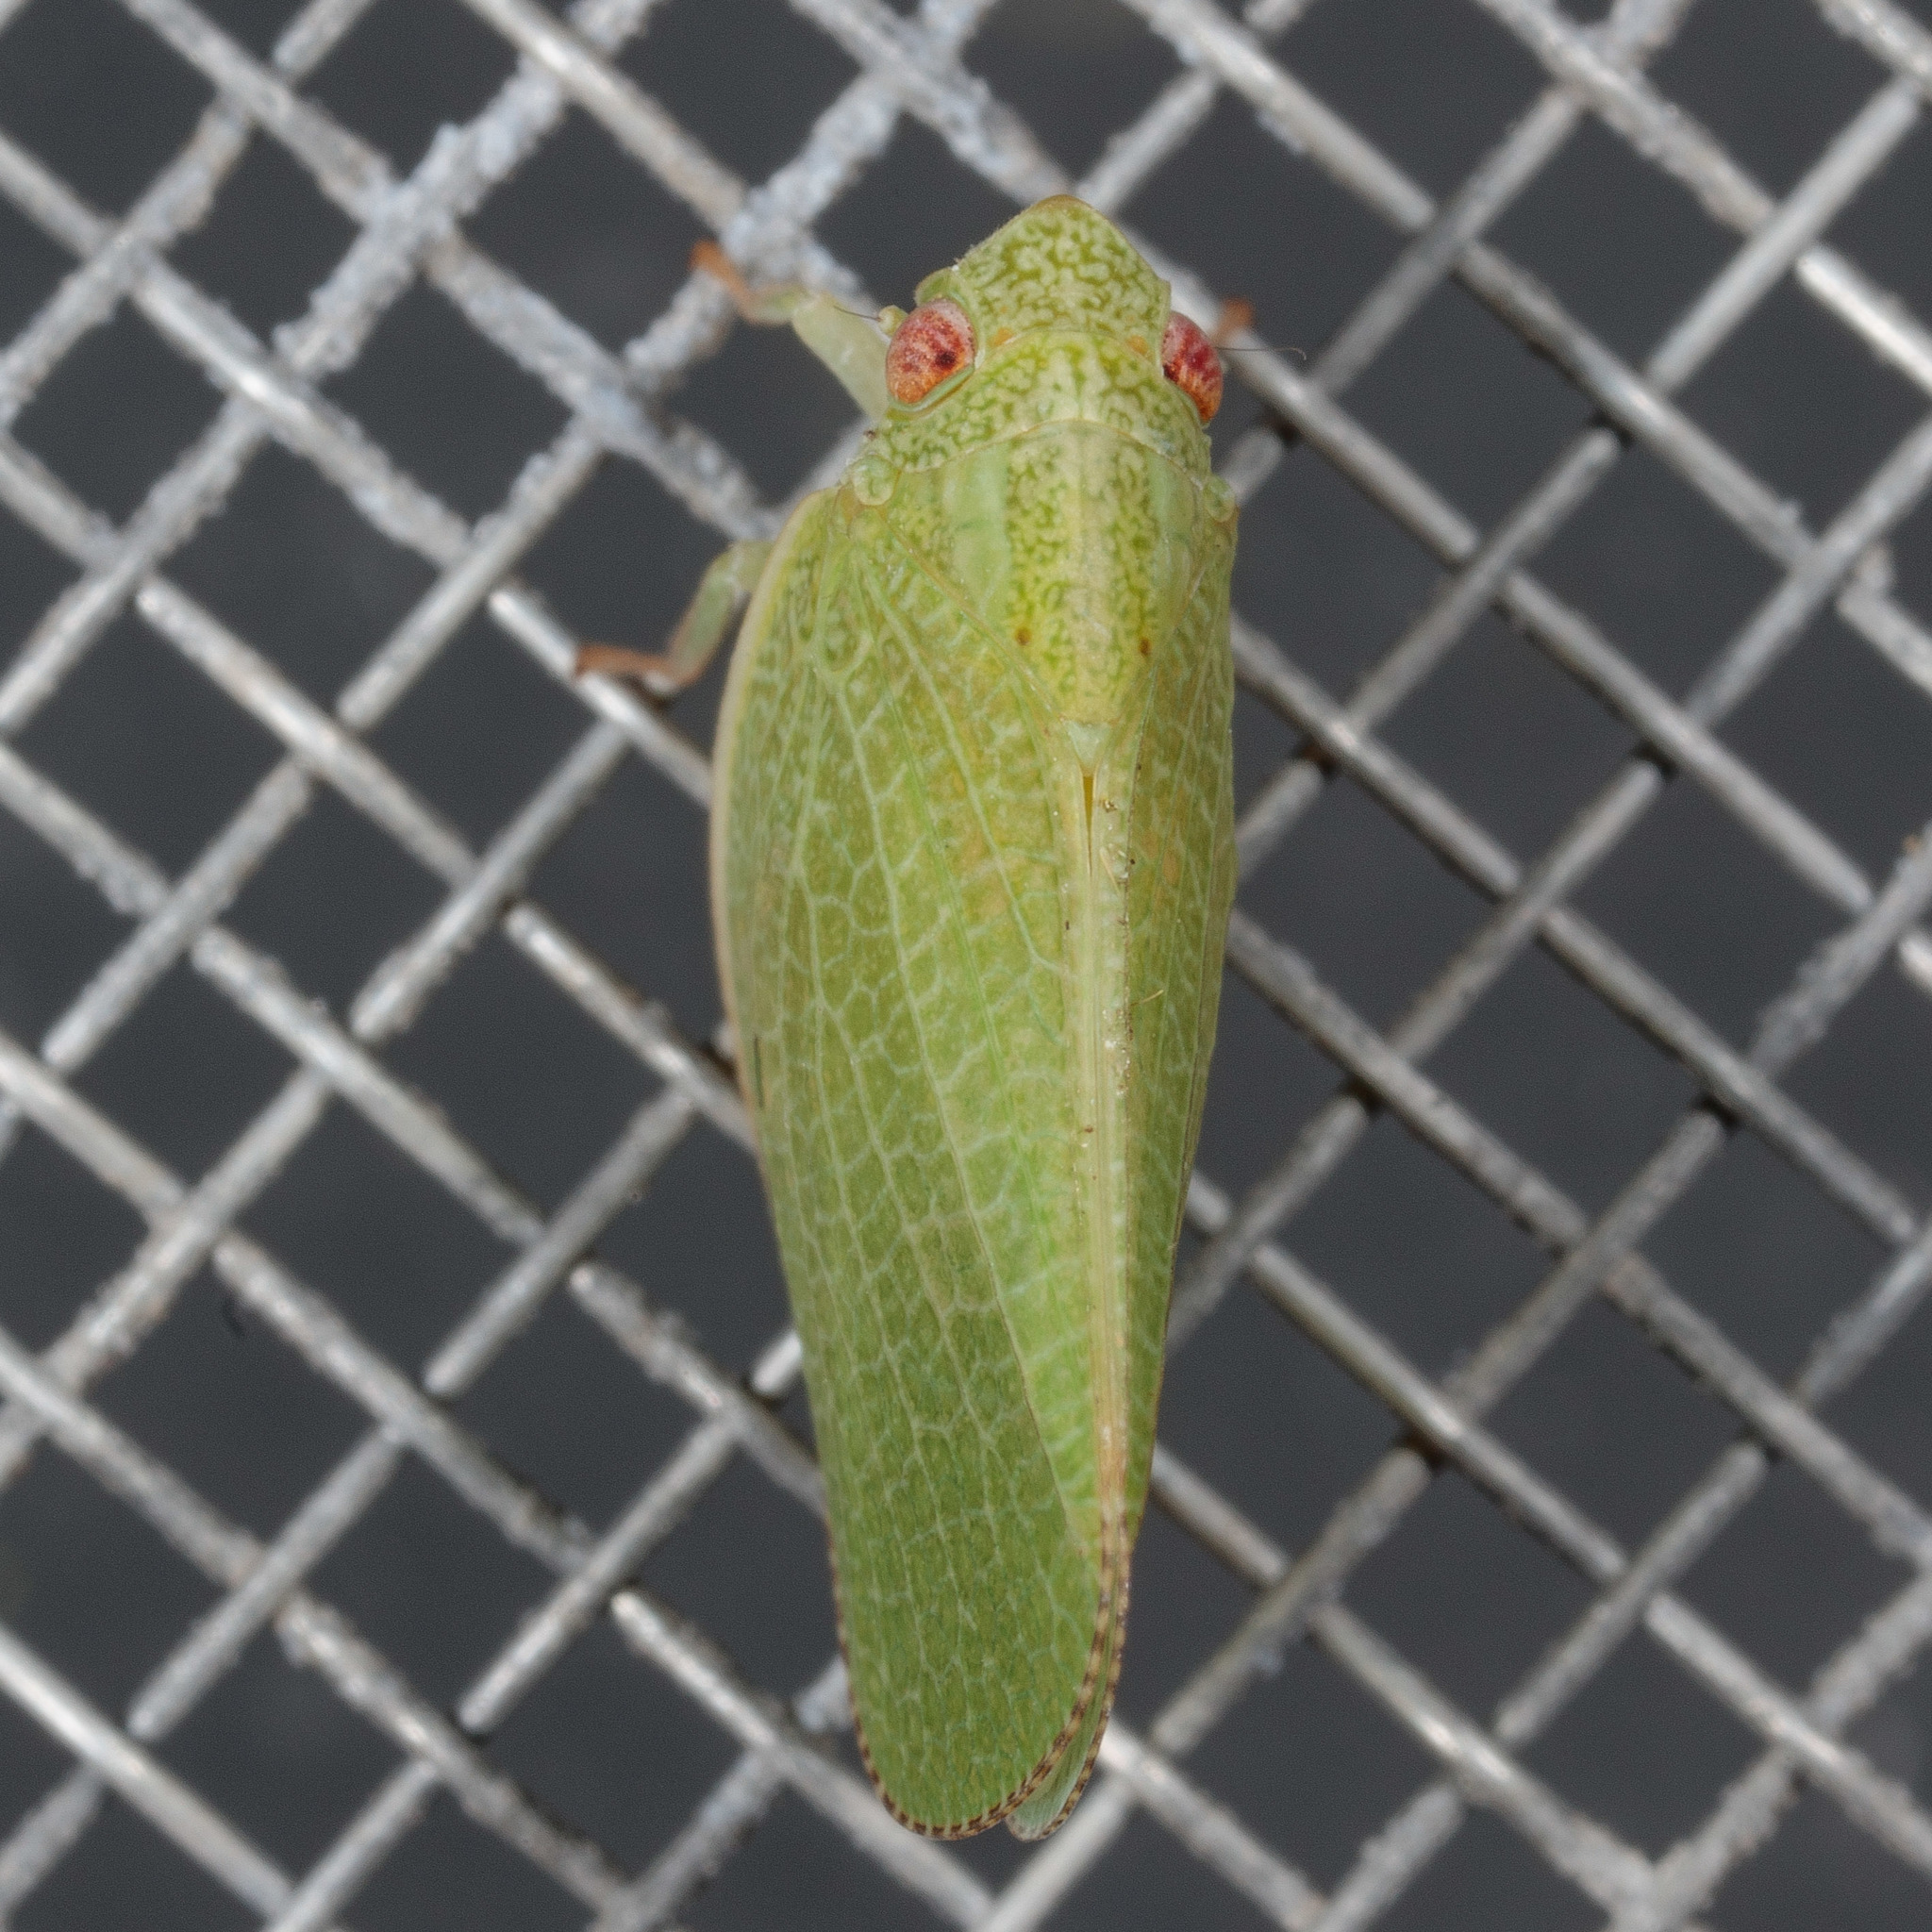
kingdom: Animalia
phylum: Arthropoda
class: Insecta
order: Hemiptera
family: Acanaloniidae
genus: Acanalonia
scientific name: Acanalonia conica
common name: Green cone-headed planthopper
